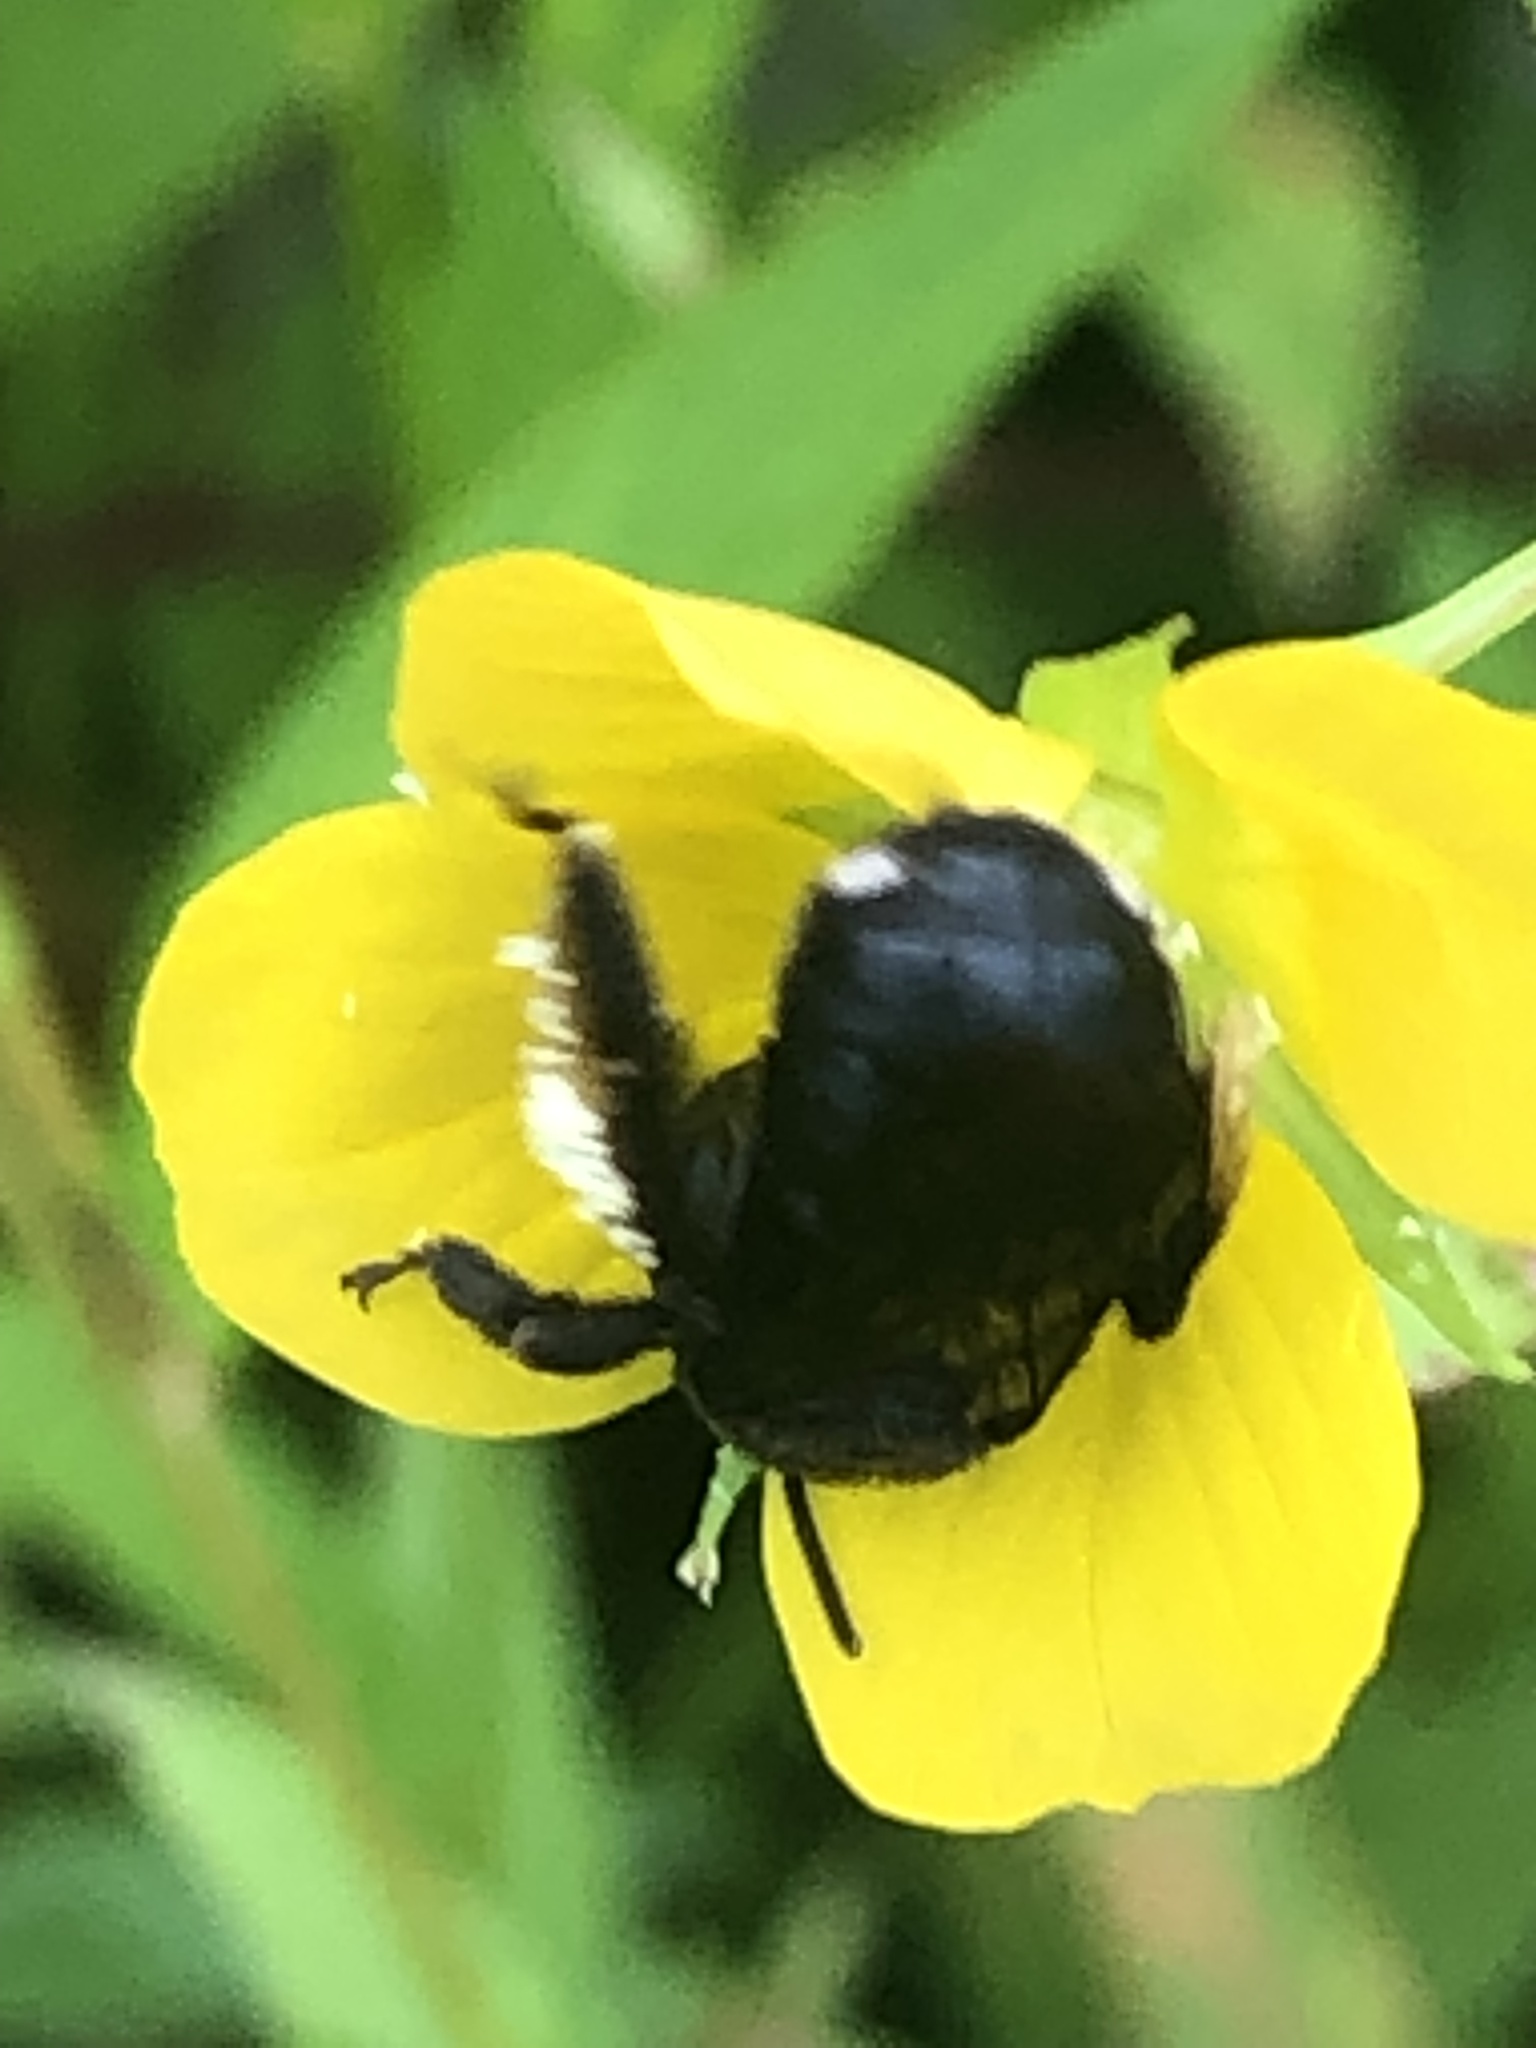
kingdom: Animalia
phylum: Arthropoda
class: Insecta
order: Hymenoptera
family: Apidae
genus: Melissodes
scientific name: Melissodes bimaculatus
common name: Two-spotted long-horned bee
